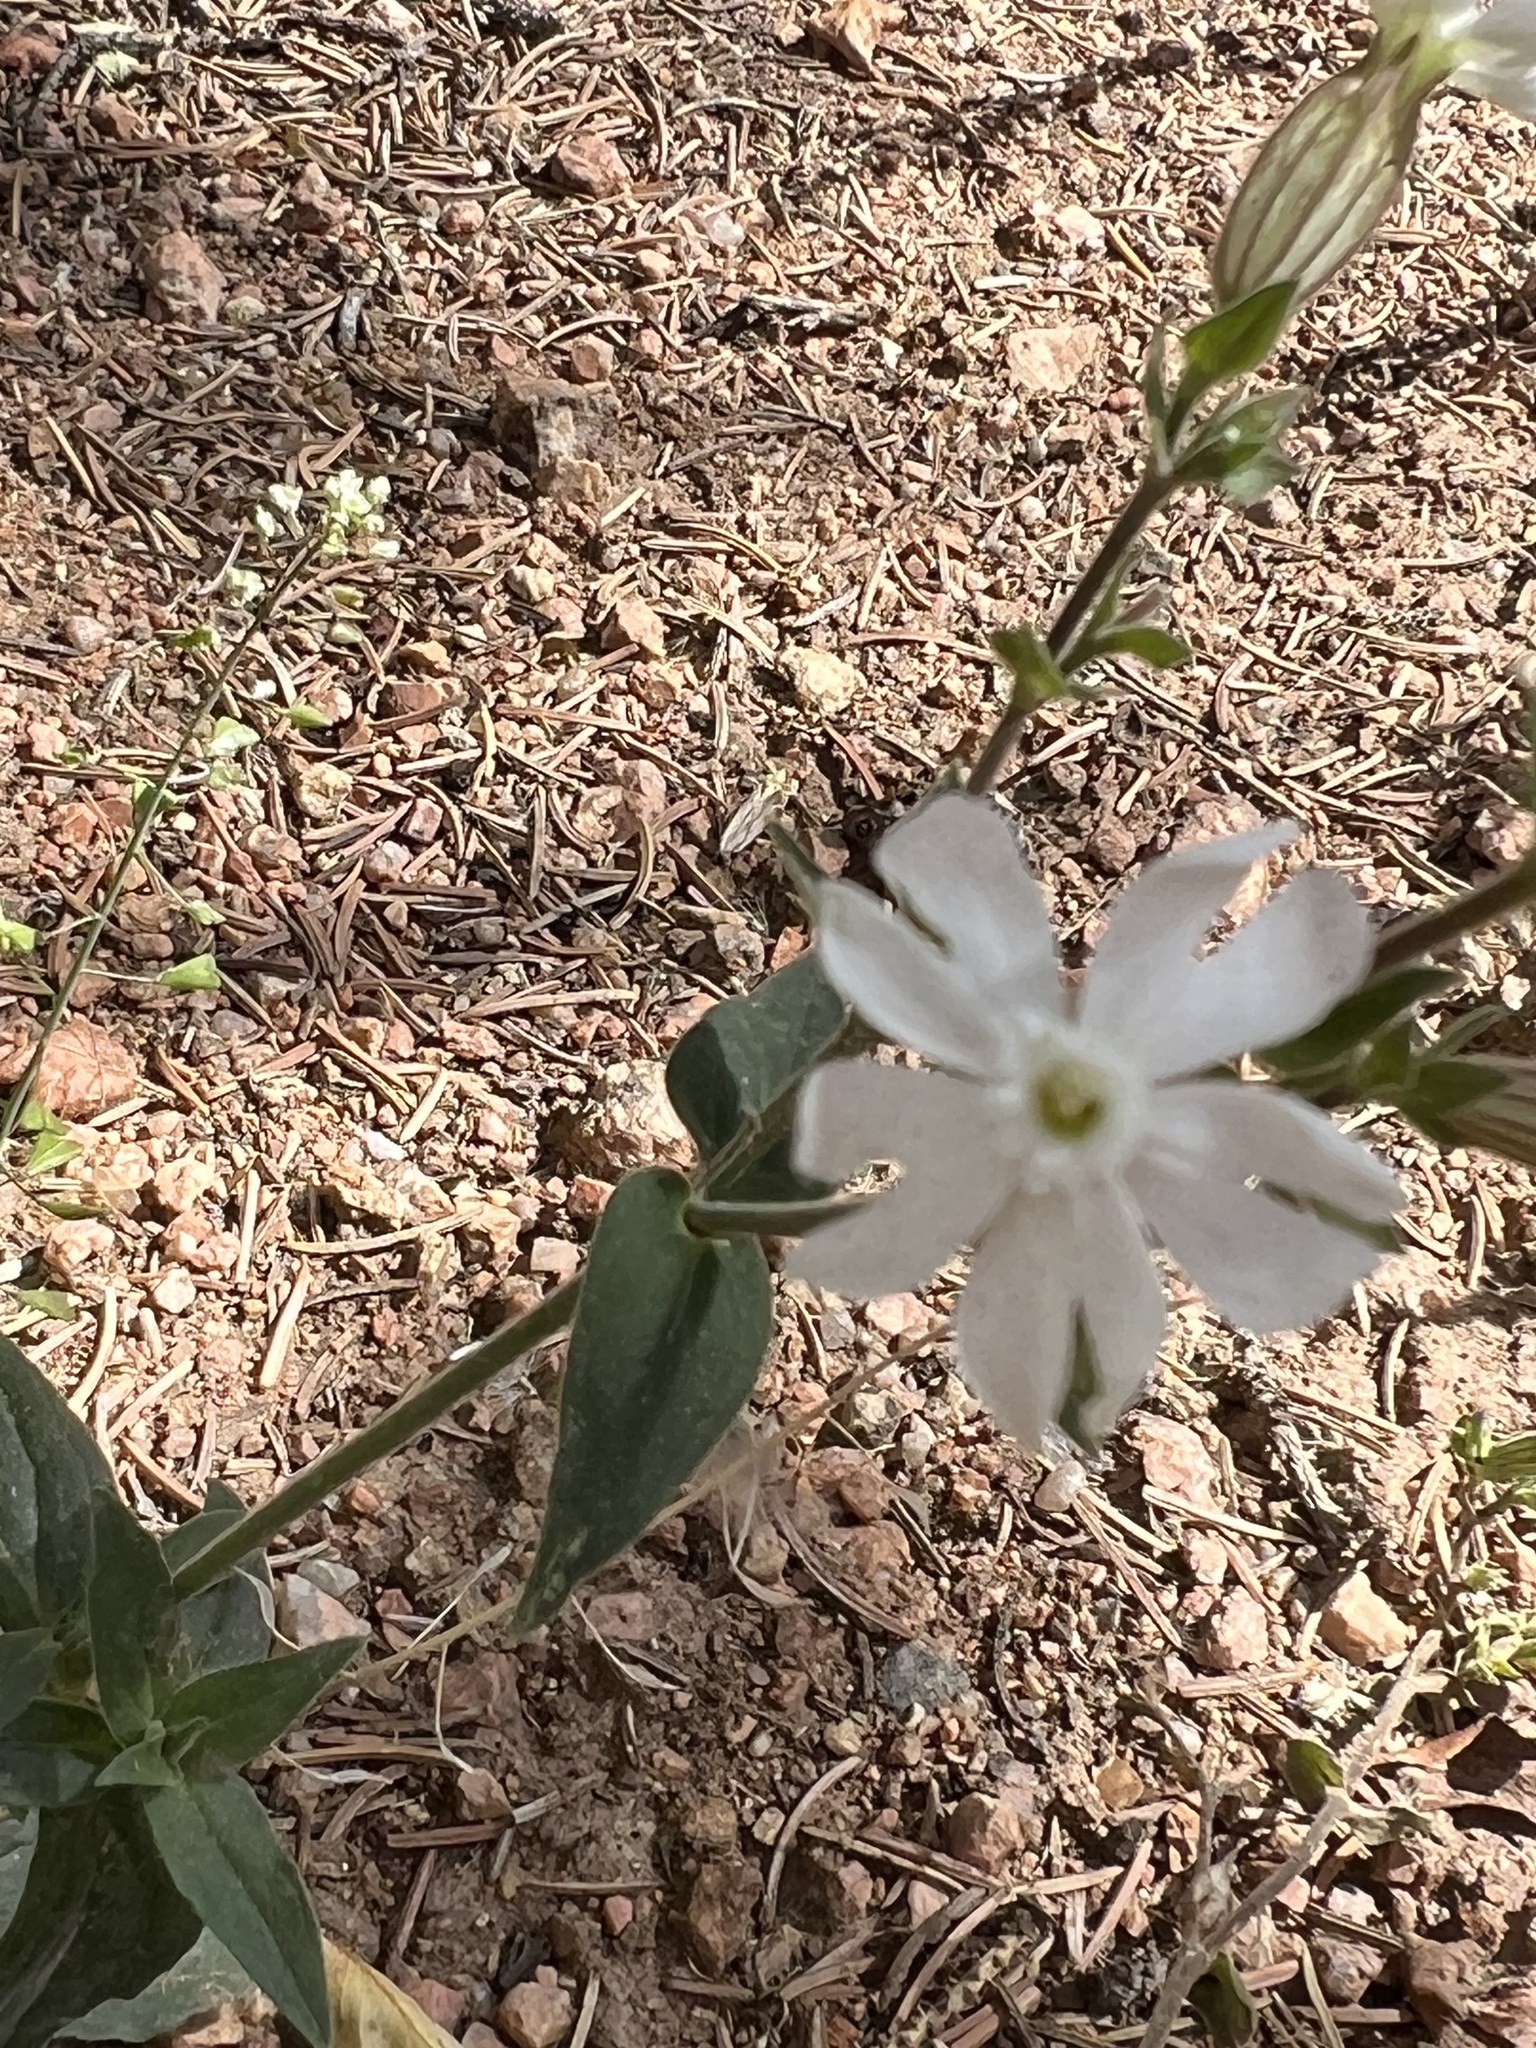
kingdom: Plantae
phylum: Tracheophyta
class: Magnoliopsida
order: Caryophyllales
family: Caryophyllaceae
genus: Silene
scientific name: Silene latifolia
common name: White campion
